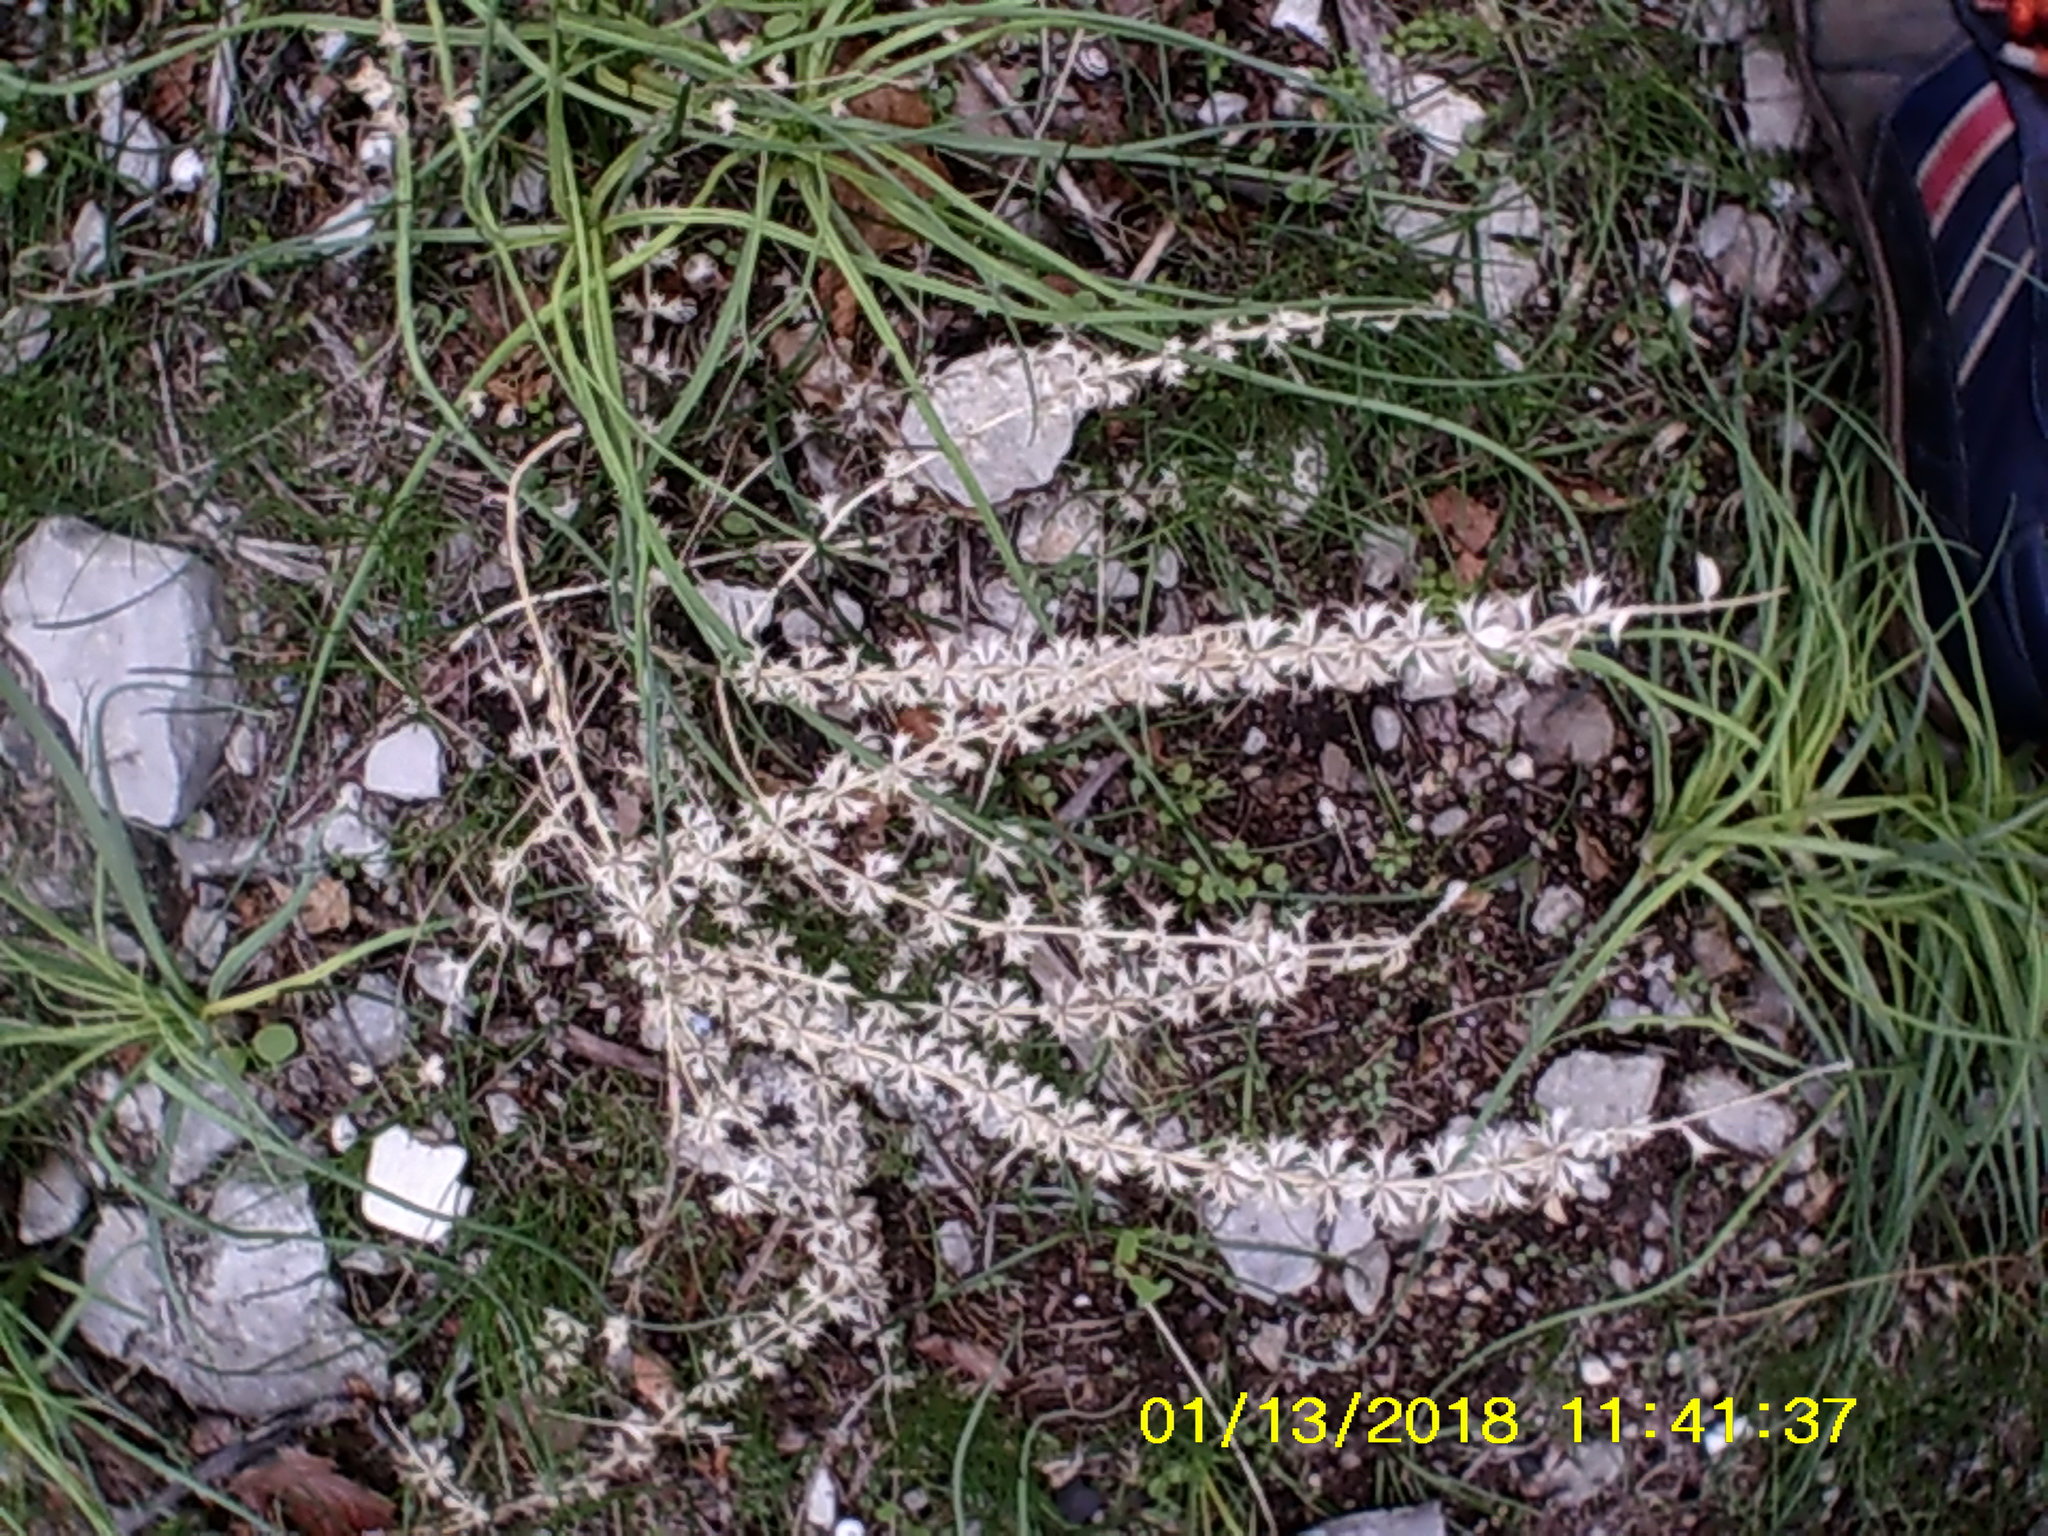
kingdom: Plantae
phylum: Tracheophyta
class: Magnoliopsida
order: Lamiales
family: Lamiaceae
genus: Sideritis
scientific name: Sideritis montana
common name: Mountain ironwort
